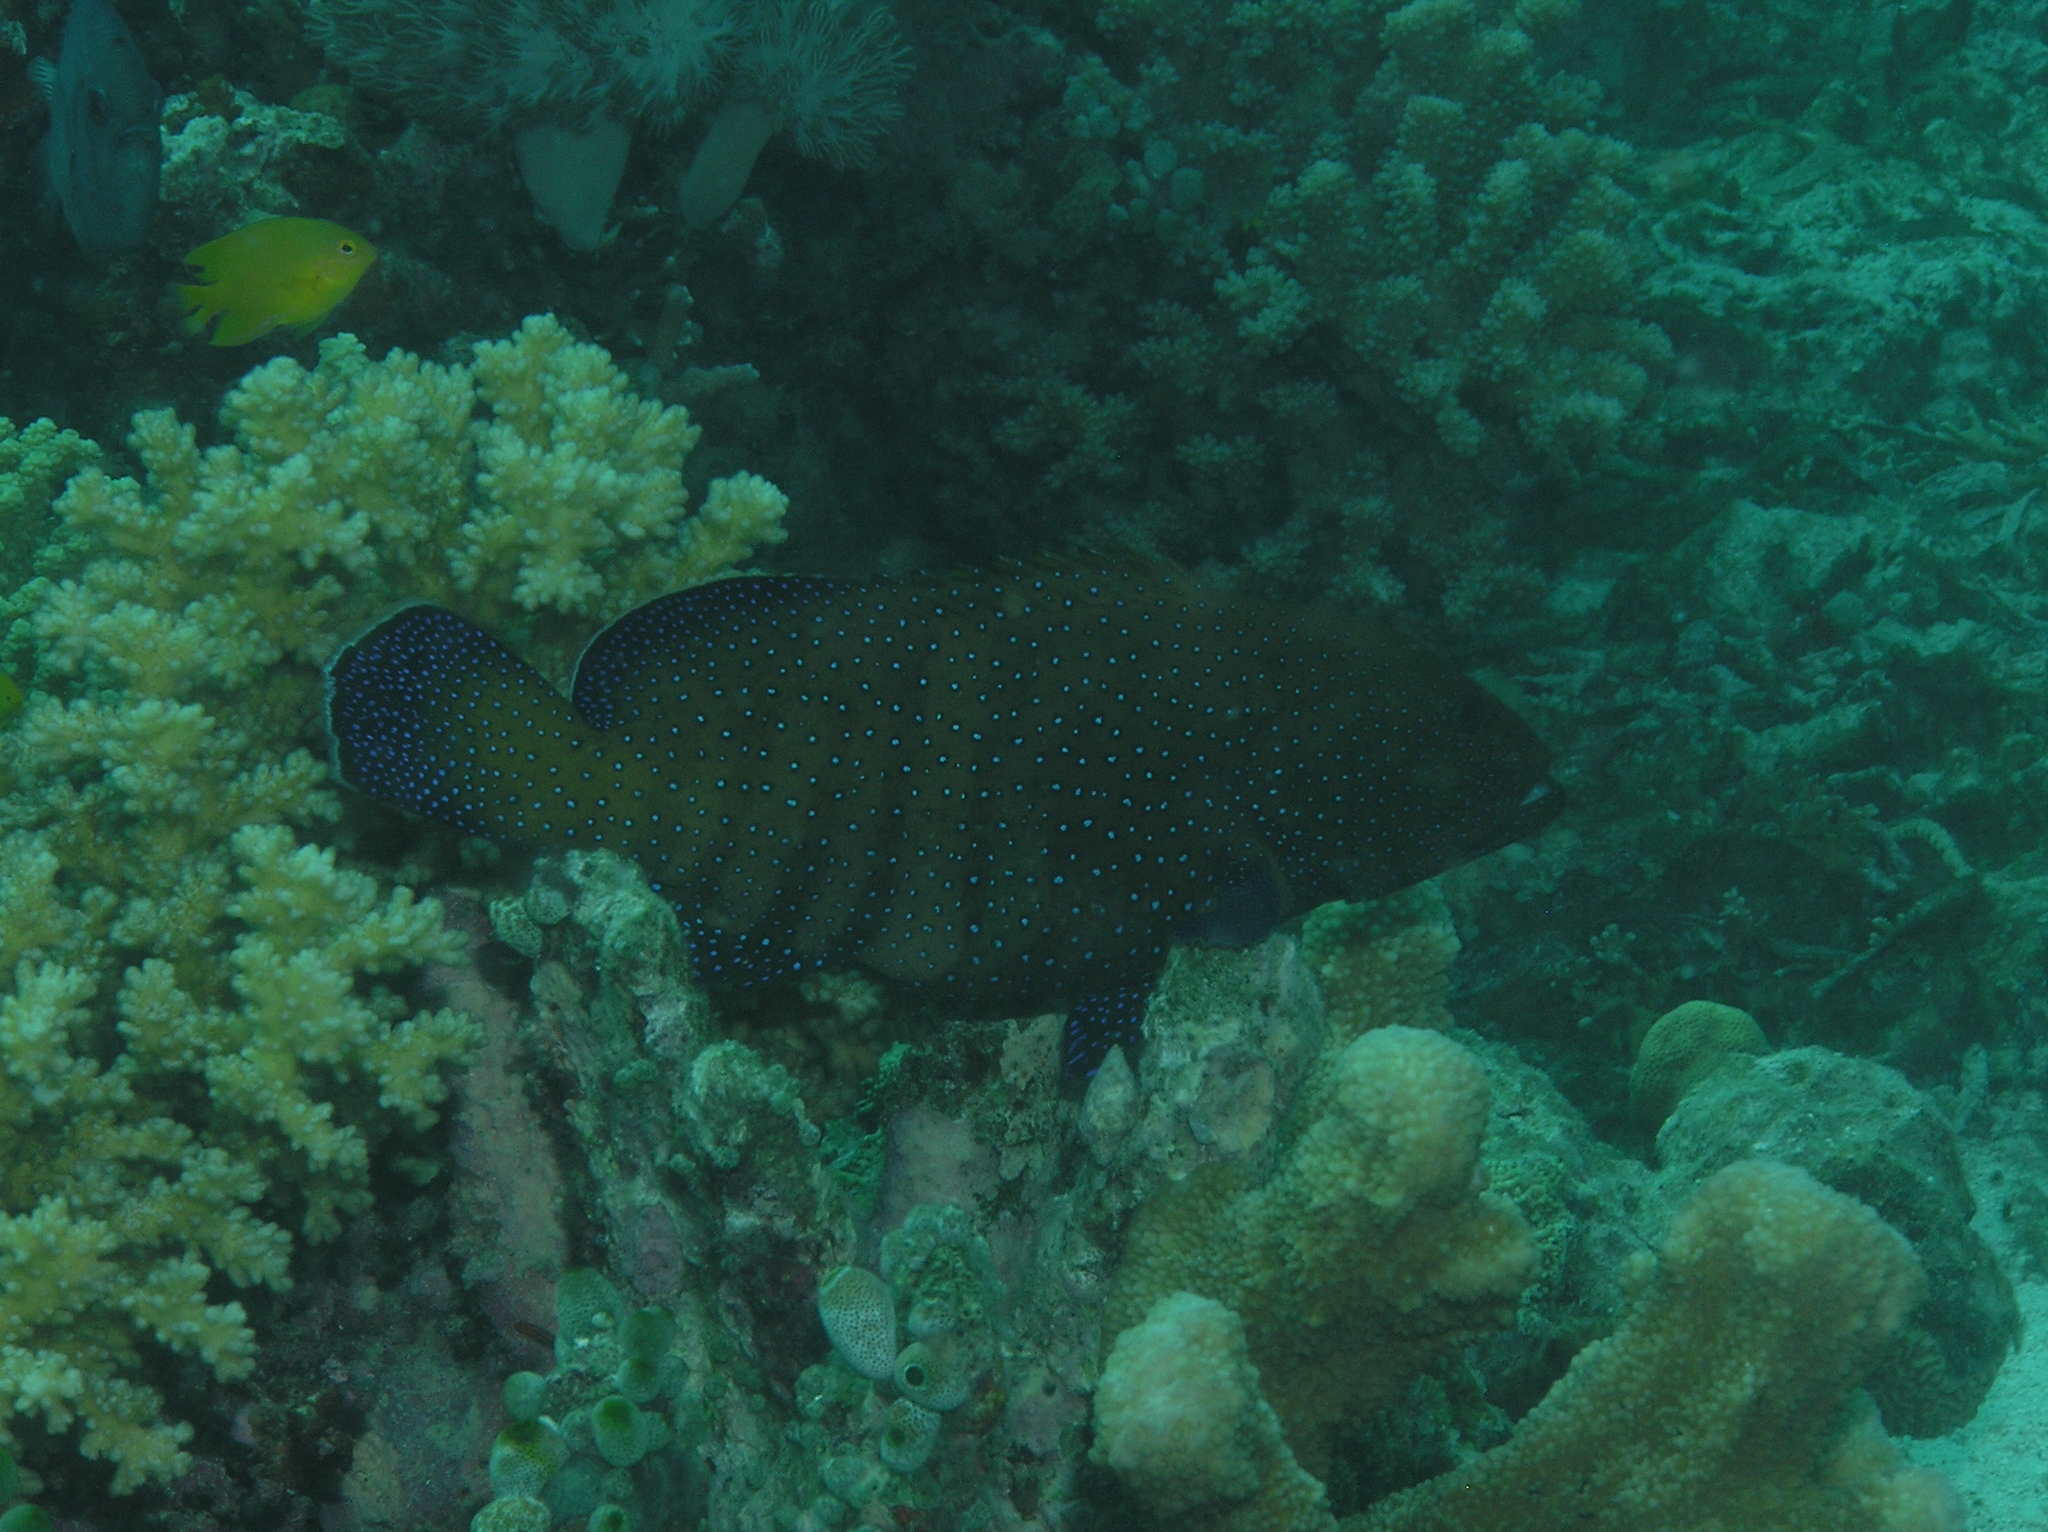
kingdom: Animalia
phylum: Chordata
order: Perciformes
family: Serranidae
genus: Cephalopholis
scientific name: Cephalopholis argus
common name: Peacock grouper
